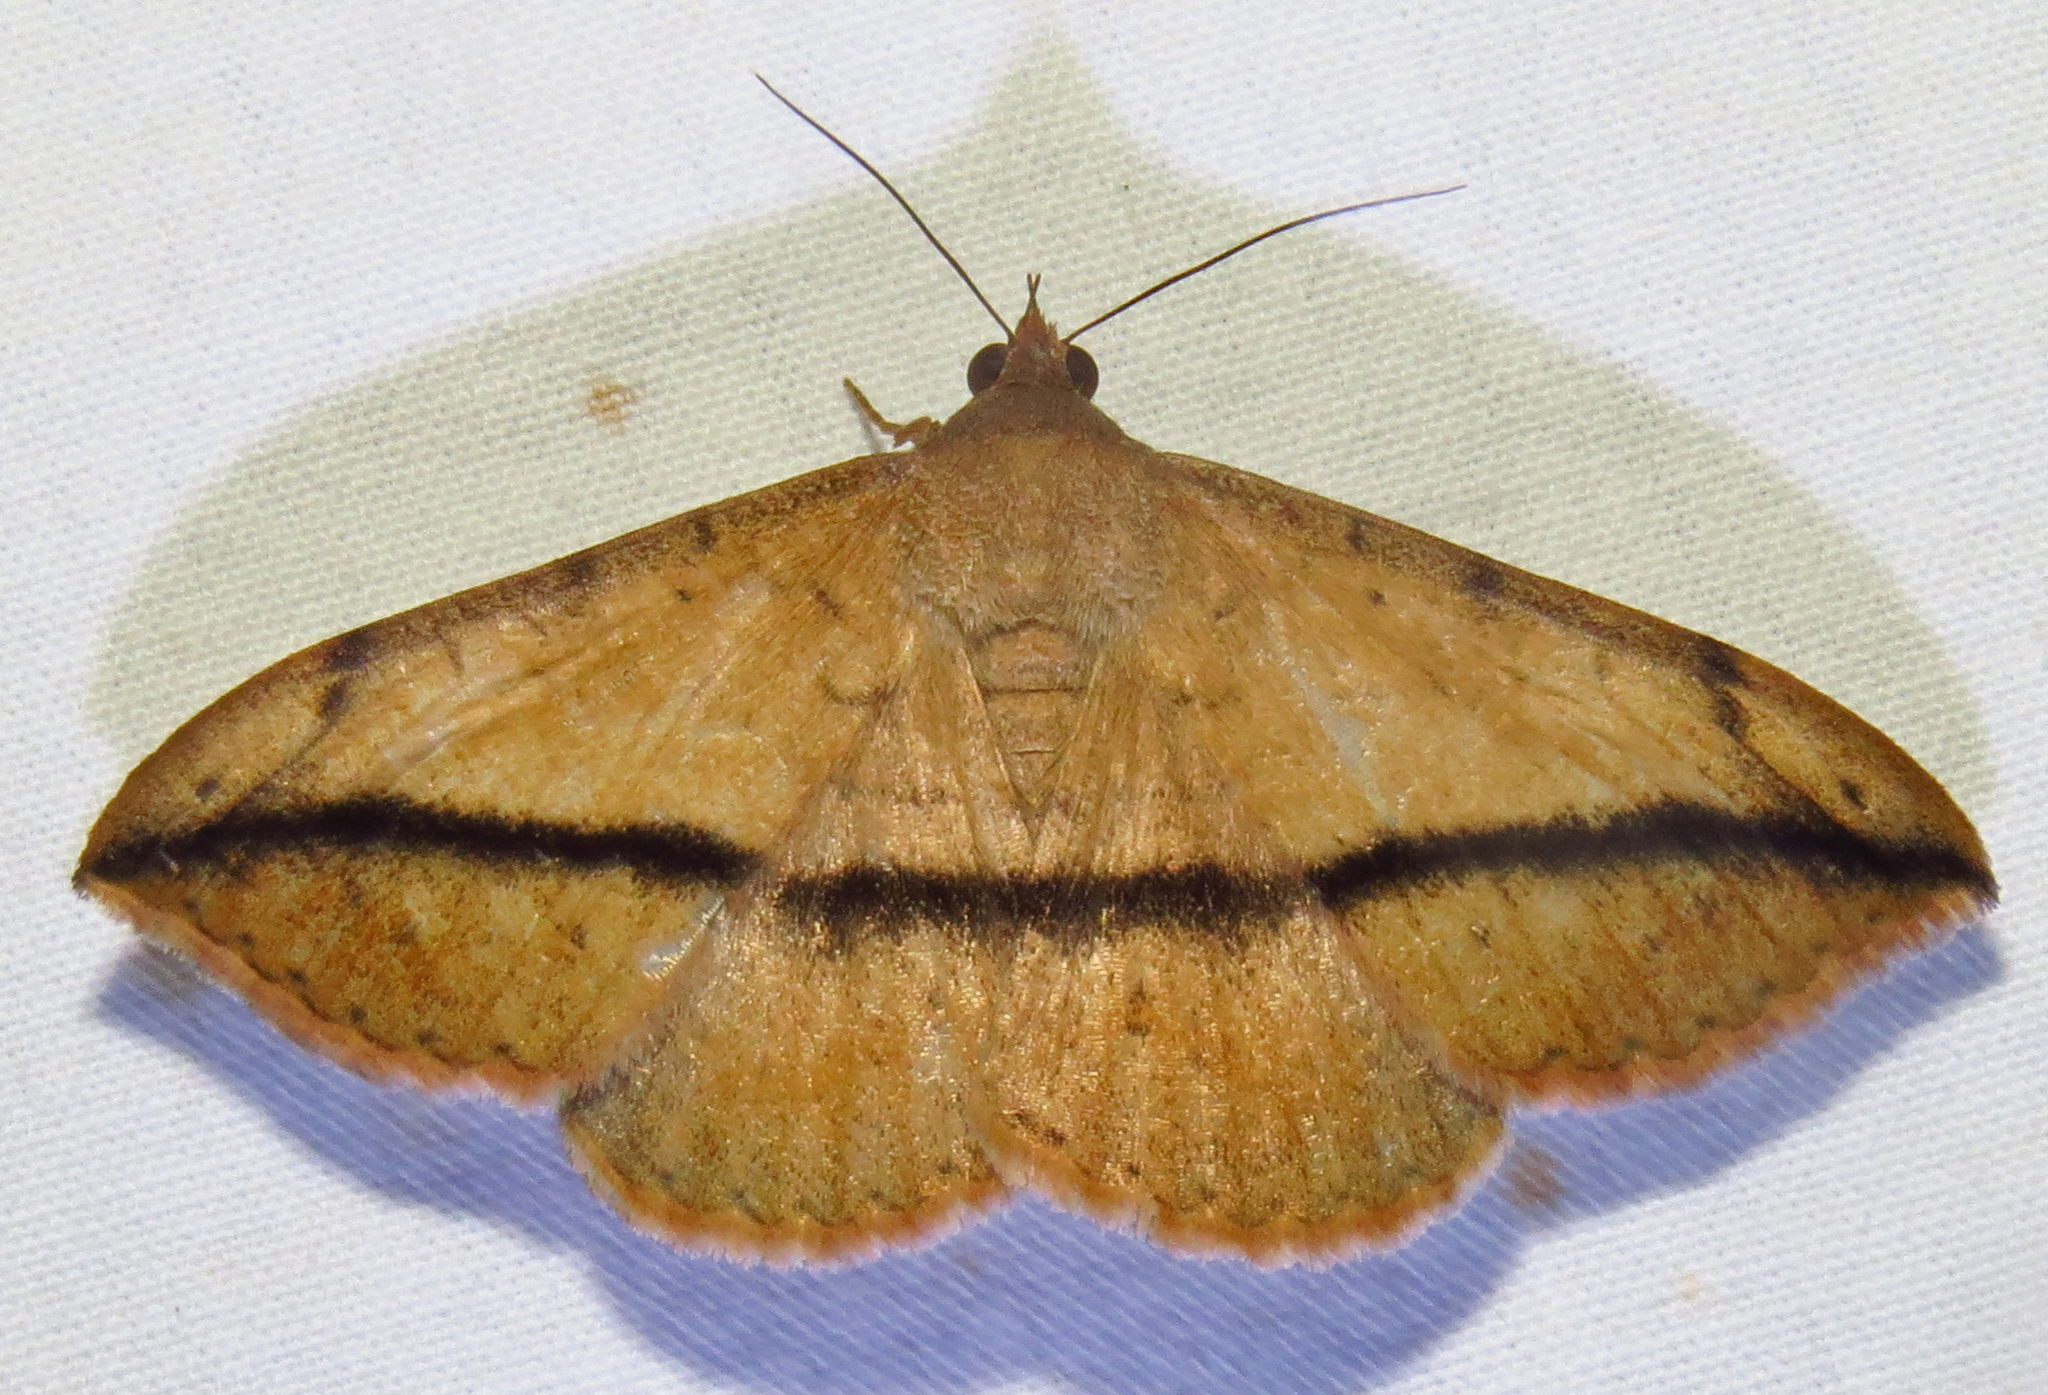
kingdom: Animalia
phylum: Arthropoda
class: Insecta
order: Lepidoptera
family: Erebidae
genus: Anticarsia
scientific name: Anticarsia gemmatalis
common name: Cutworm moth
